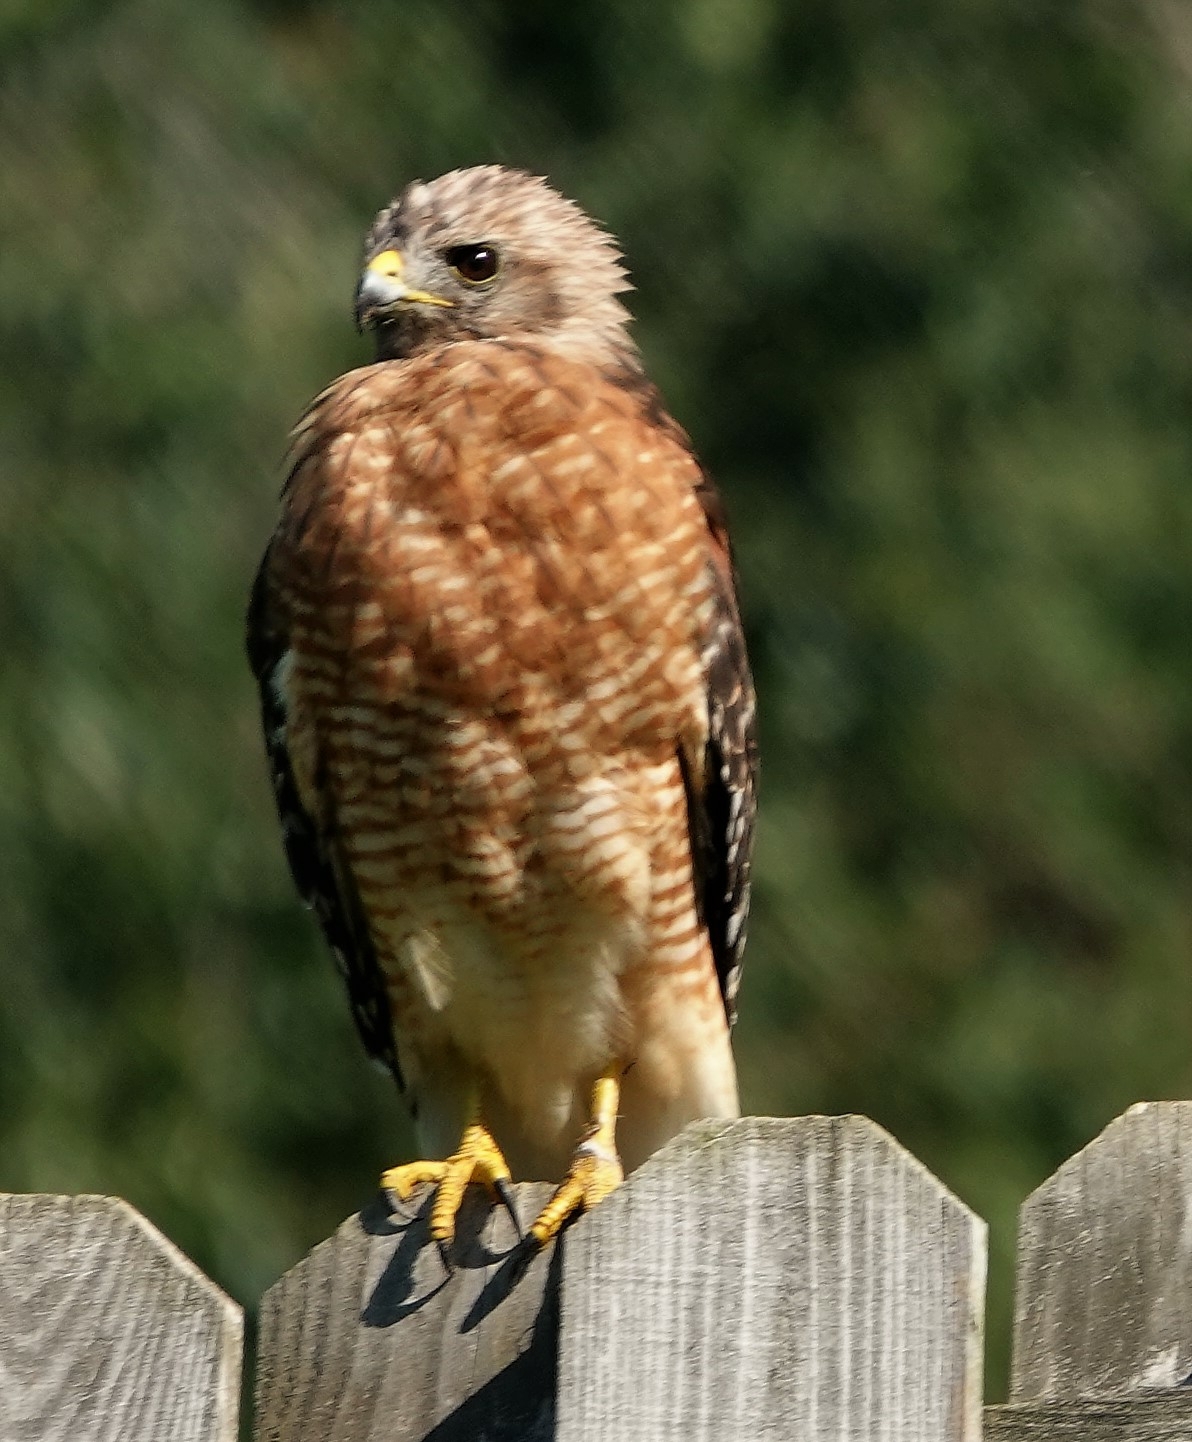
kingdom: Animalia
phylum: Chordata
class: Aves
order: Accipitriformes
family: Accipitridae
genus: Buteo
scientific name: Buteo lineatus
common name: Red-shouldered hawk
